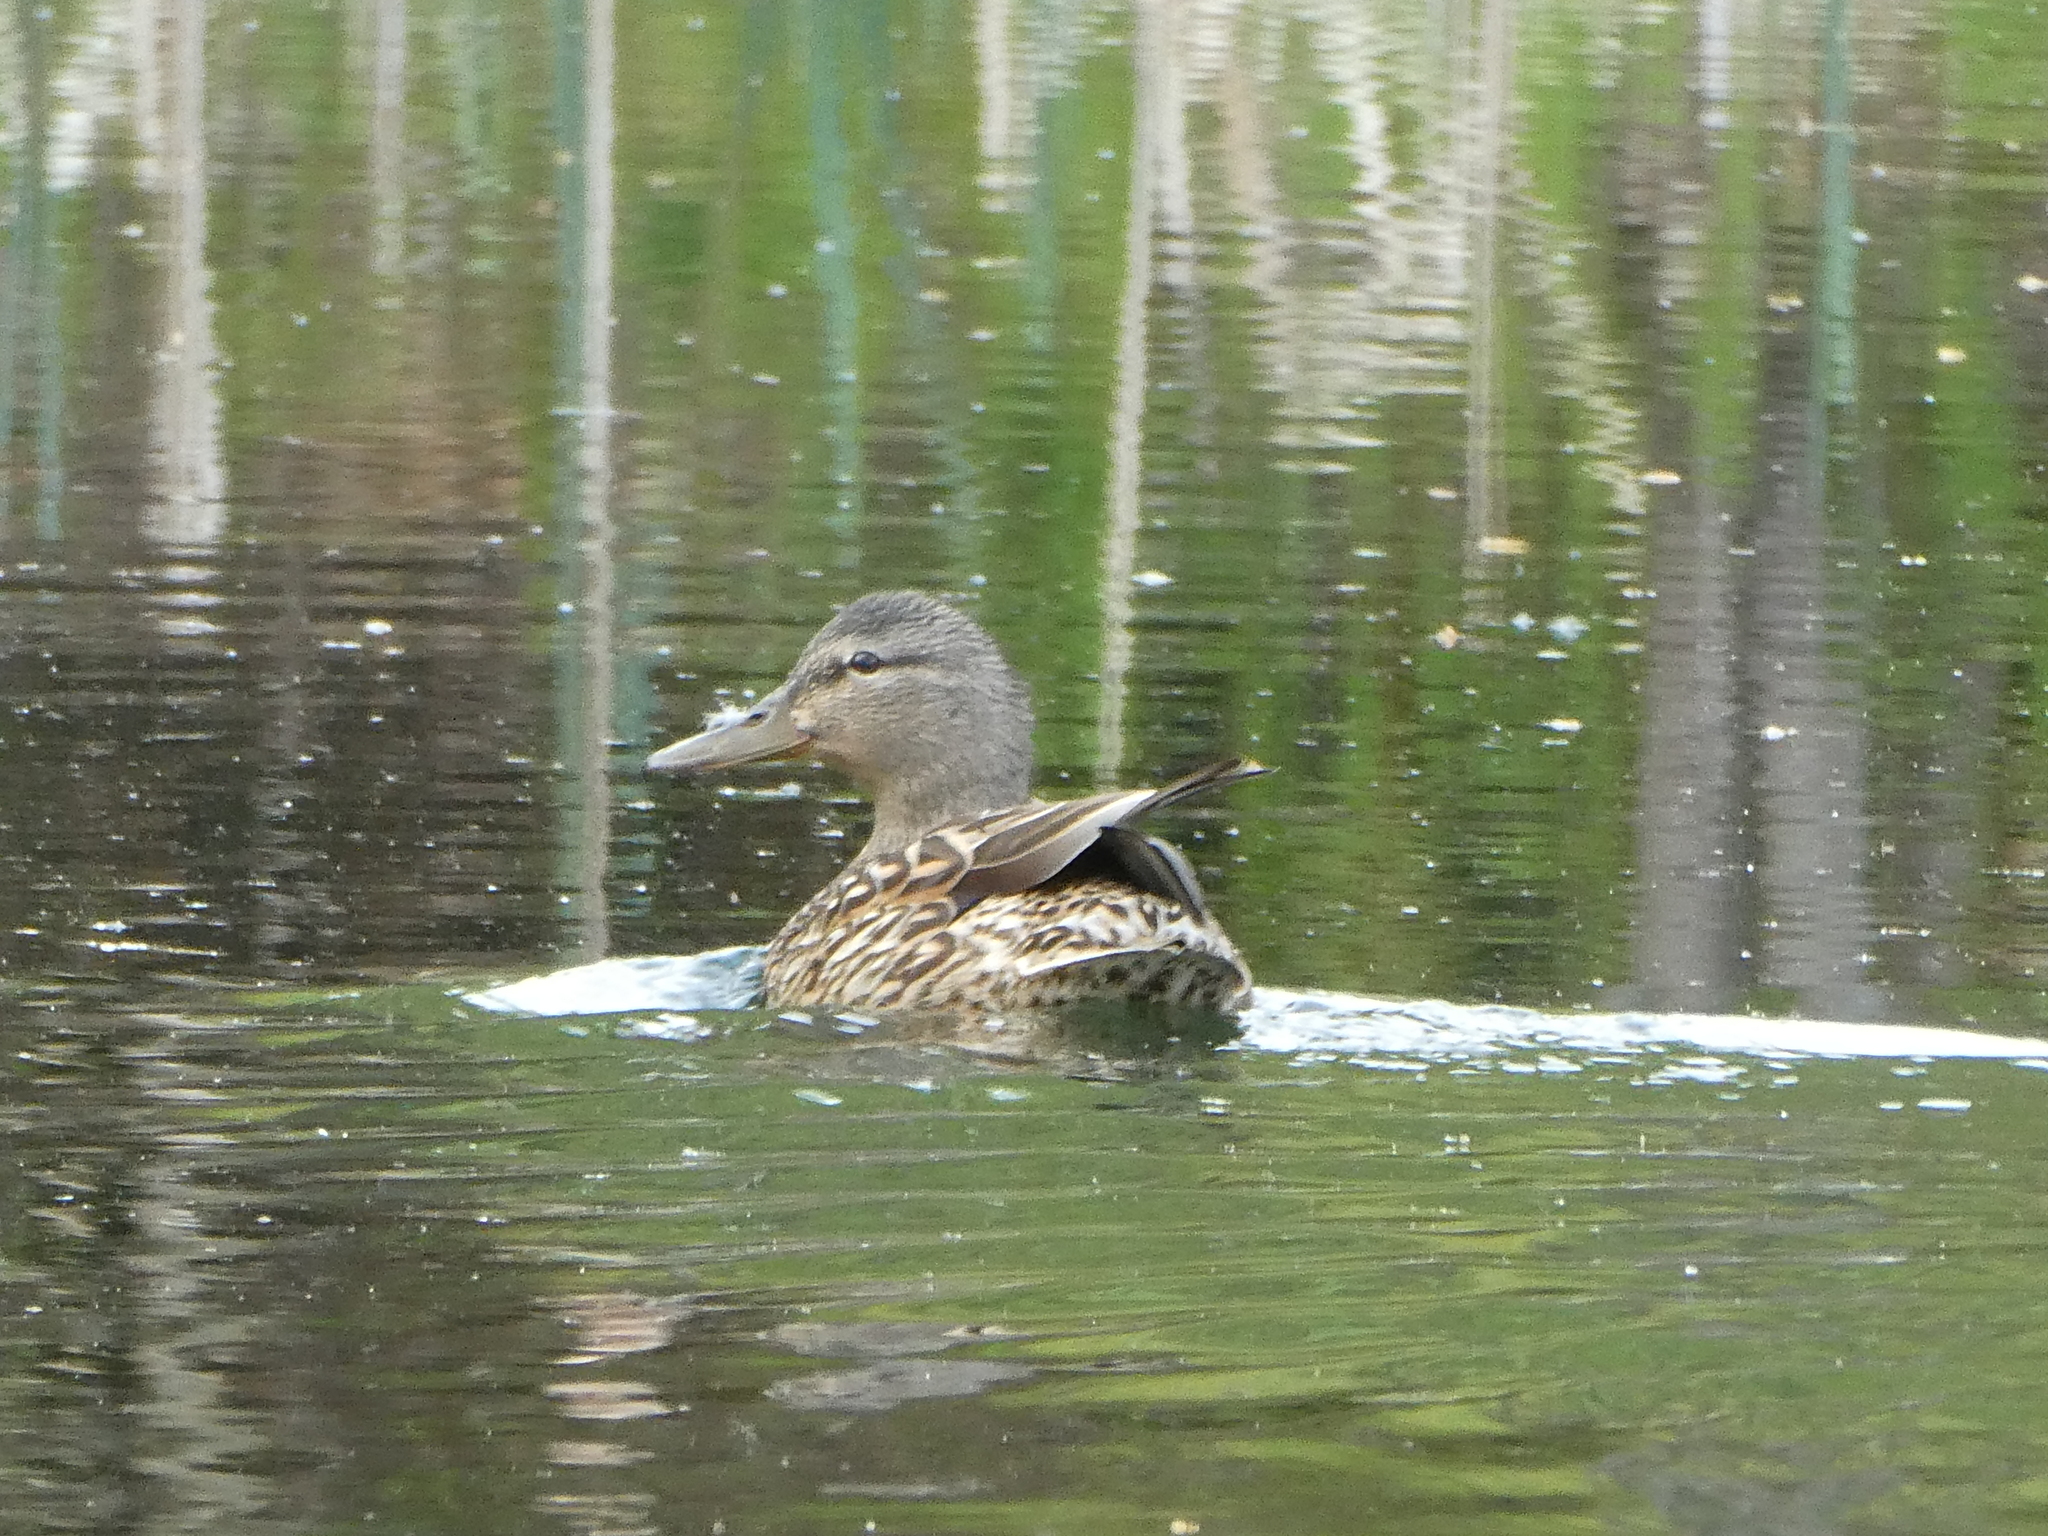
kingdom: Animalia
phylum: Chordata
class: Aves
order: Anseriformes
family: Anatidae
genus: Anas
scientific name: Anas platyrhynchos
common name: Mallard
